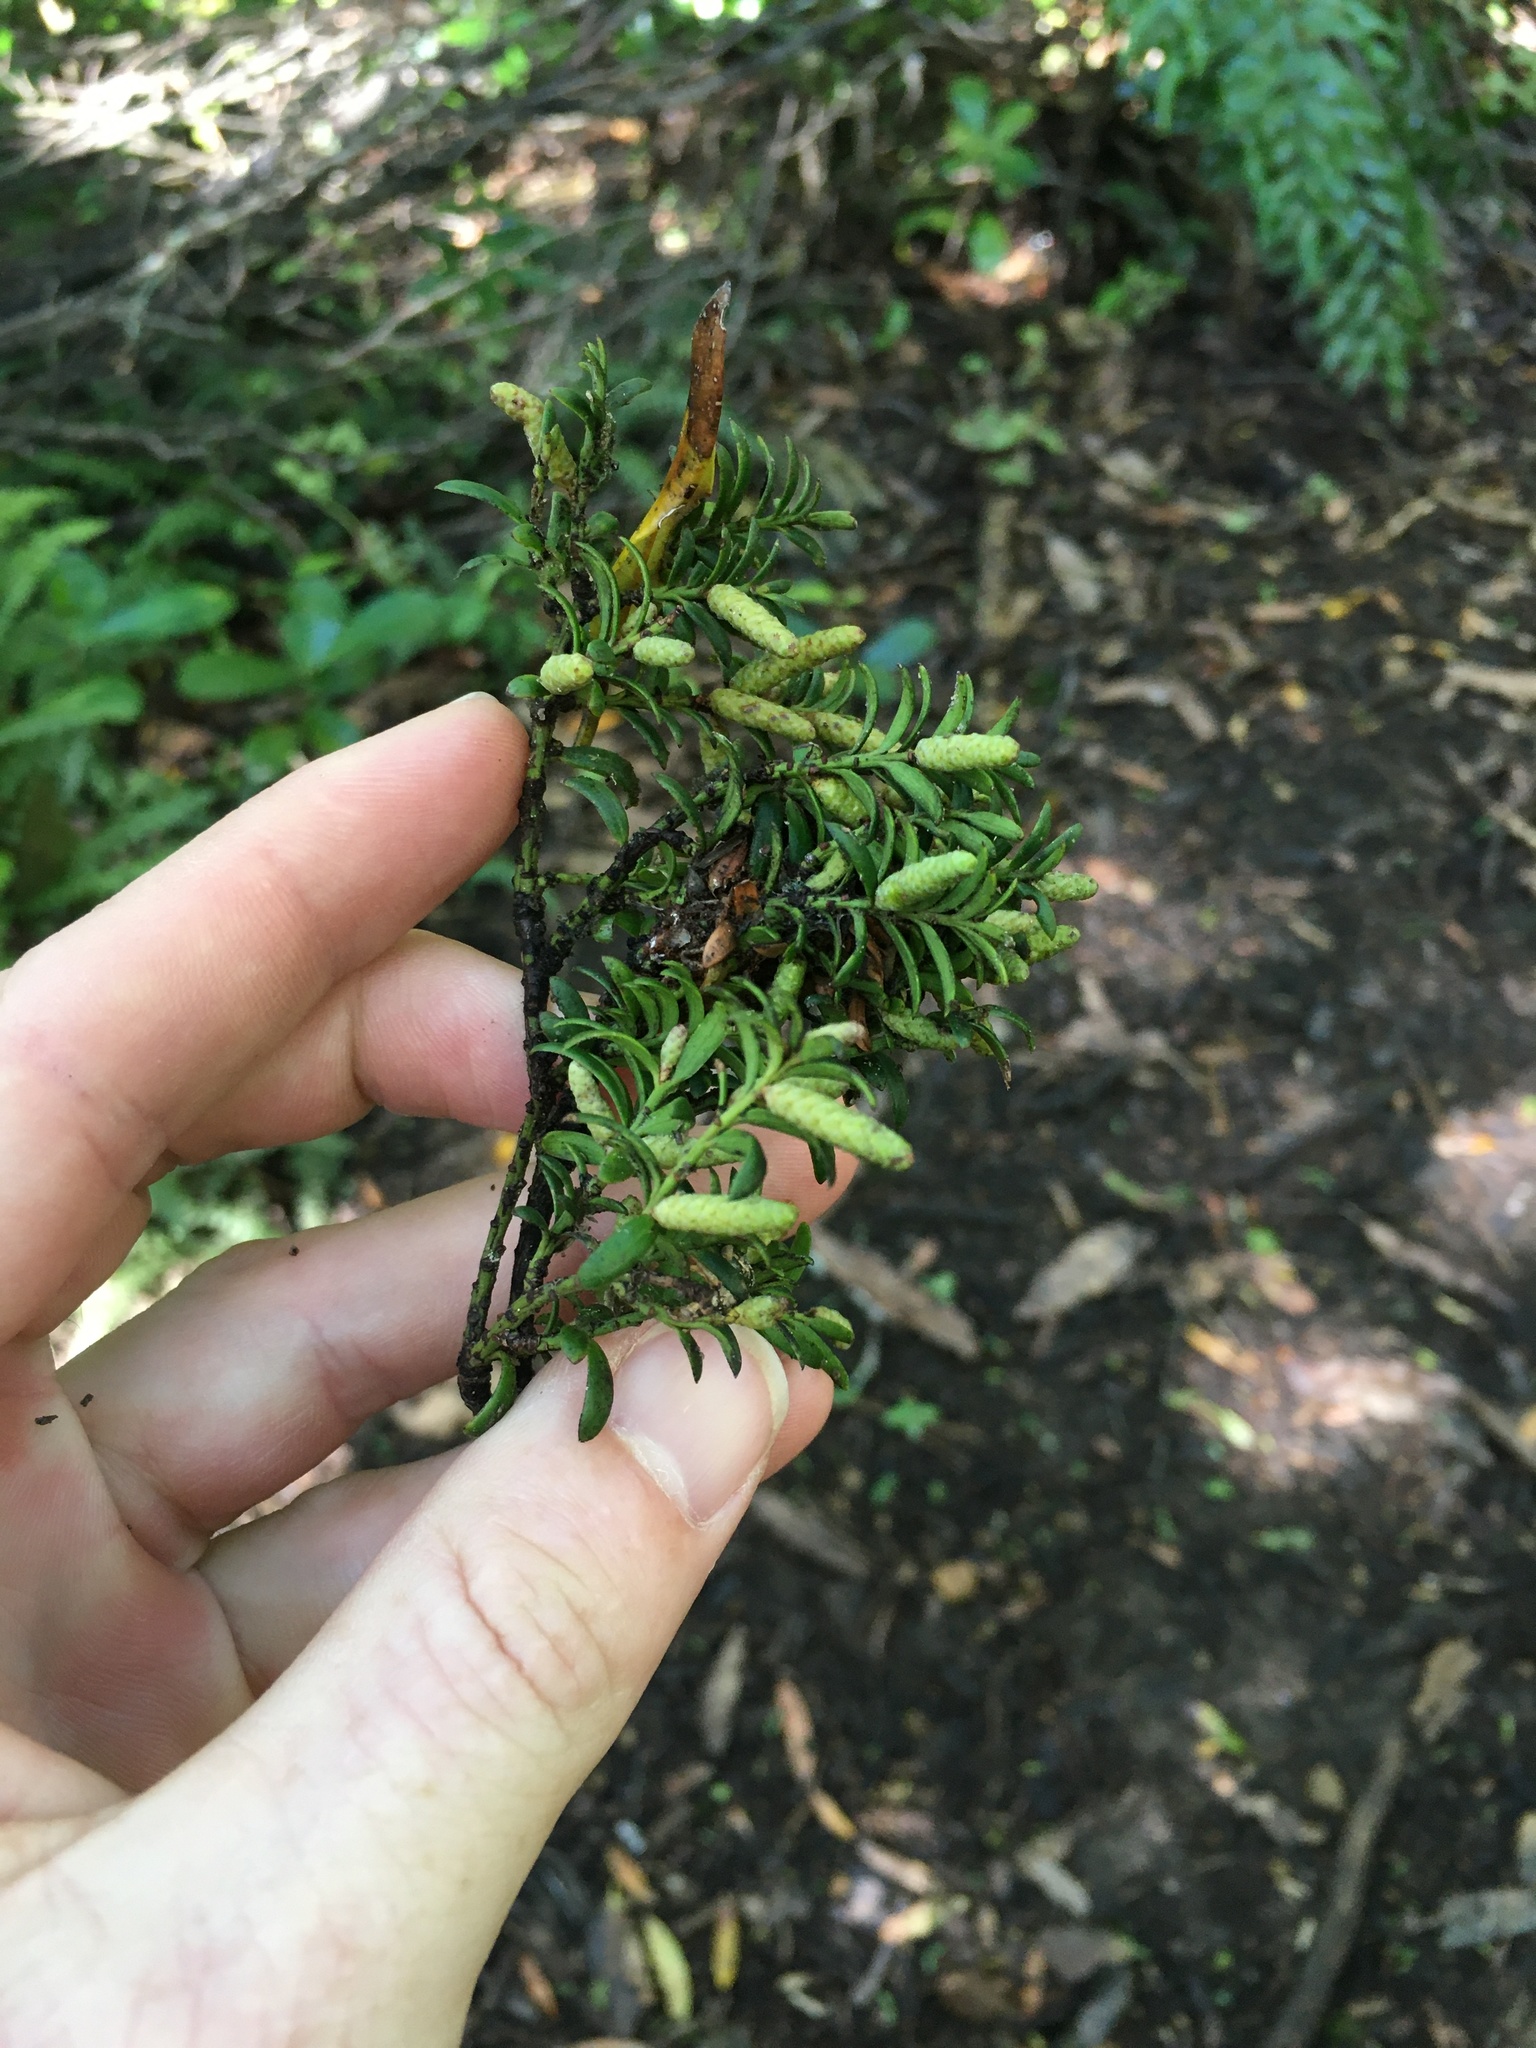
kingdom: Plantae
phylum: Tracheophyta
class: Pinopsida
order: Pinales
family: Podocarpaceae
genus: Prumnopitys
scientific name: Prumnopitys ferruginea
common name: Brown pine
